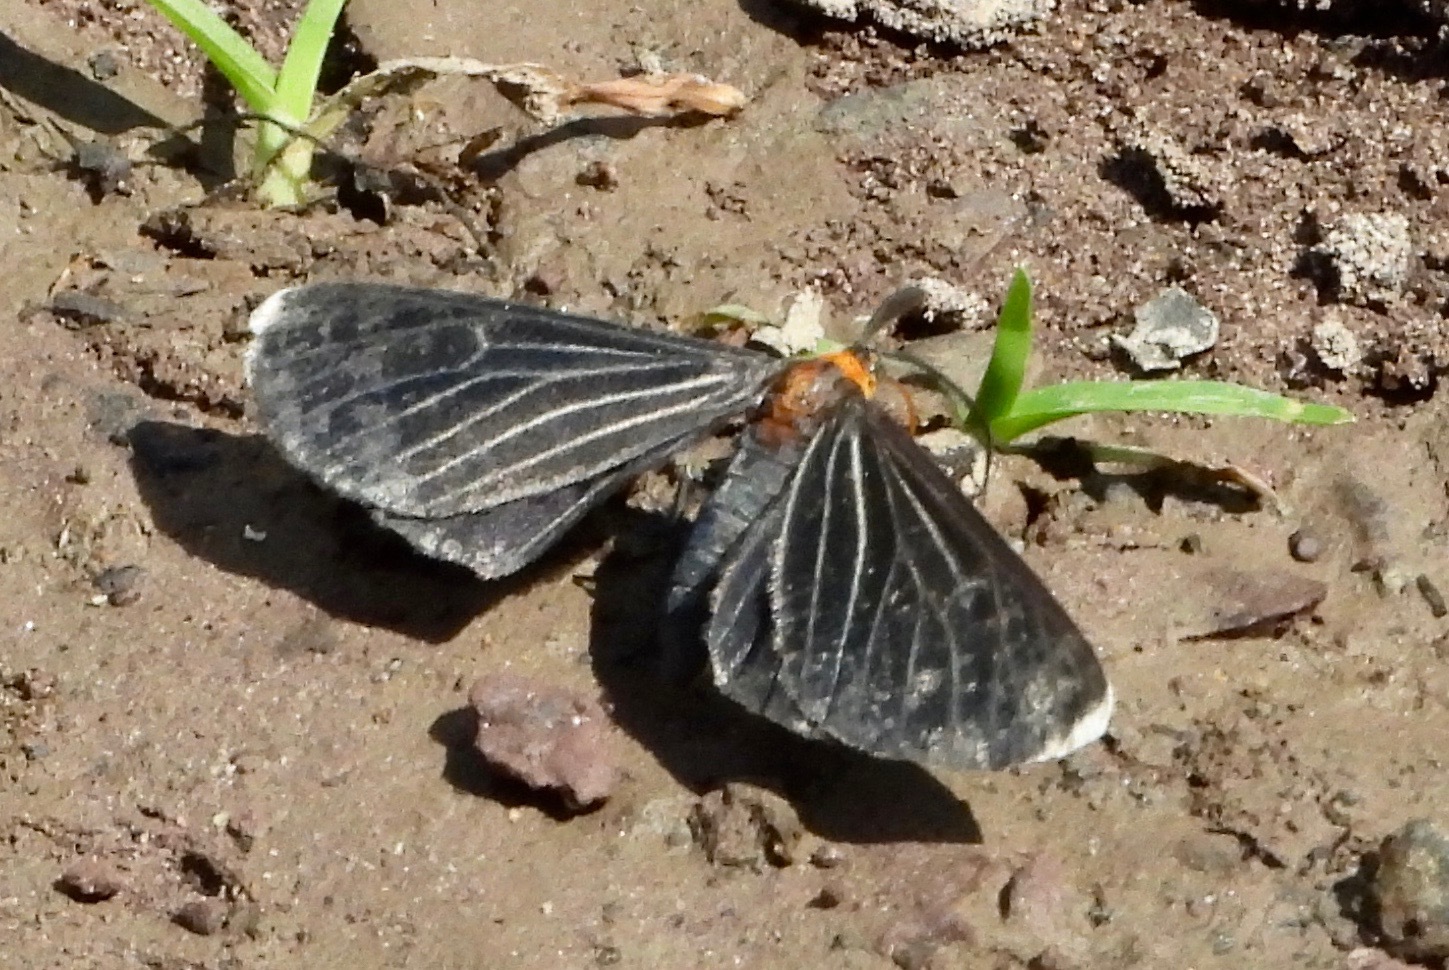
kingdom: Animalia
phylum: Arthropoda
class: Insecta
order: Lepidoptera
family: Geometridae
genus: Melanchroia
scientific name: Melanchroia chephise
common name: White-tipped black
